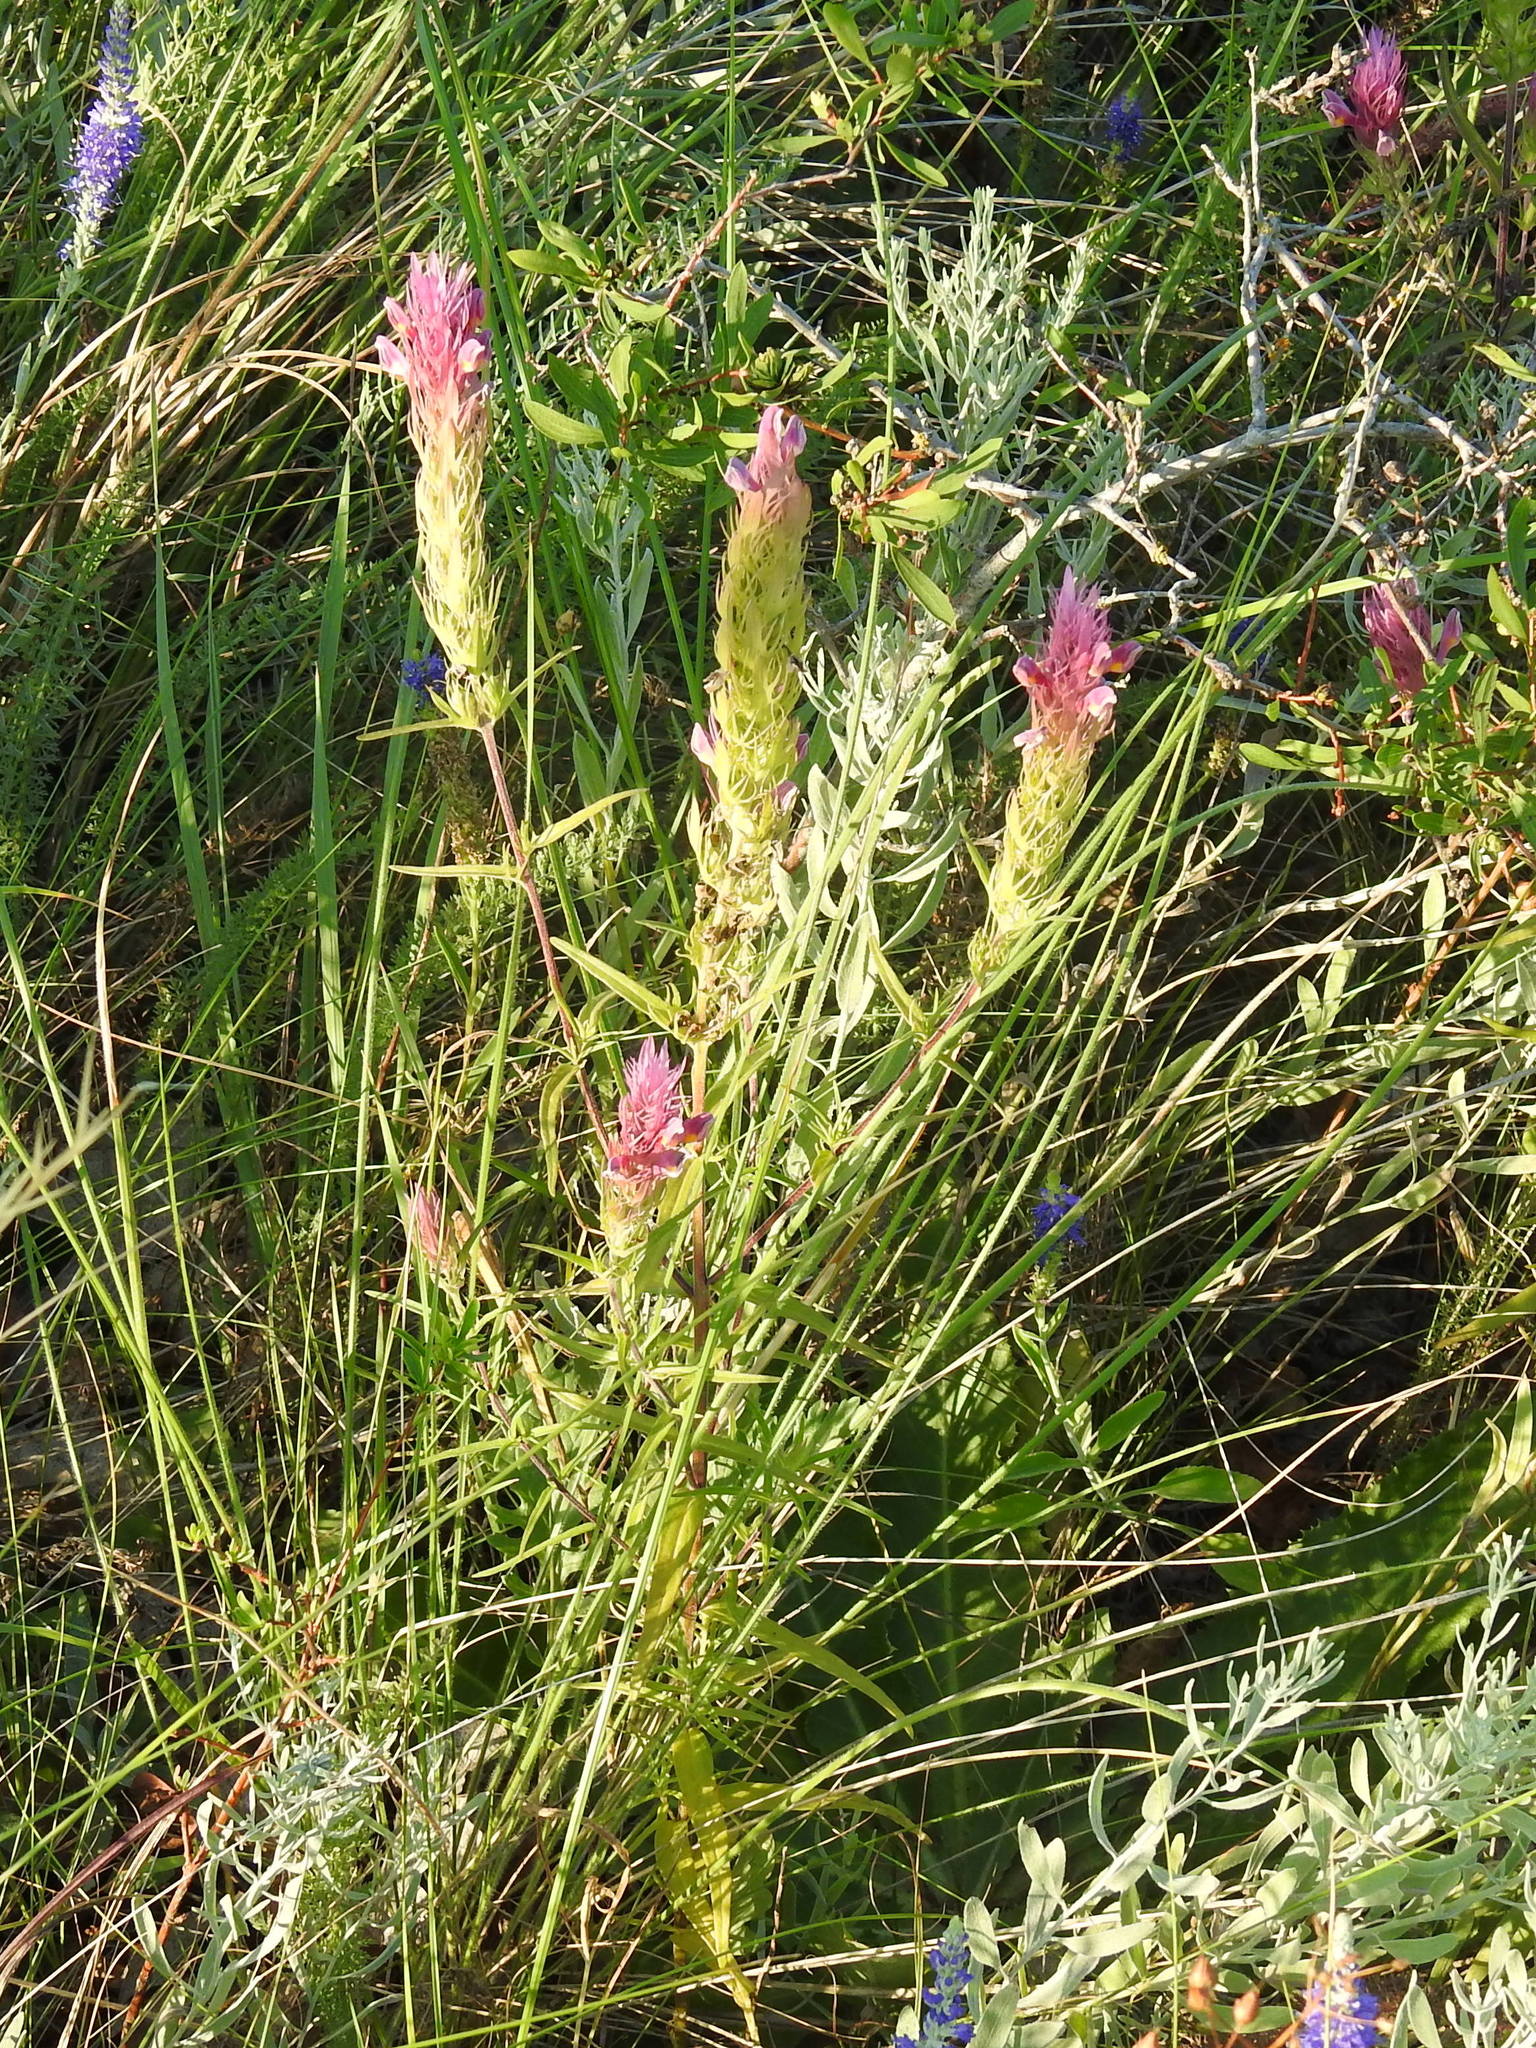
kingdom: Plantae
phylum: Tracheophyta
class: Magnoliopsida
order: Lamiales
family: Orobanchaceae
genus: Melampyrum
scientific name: Melampyrum arvense
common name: Field cow-wheat
